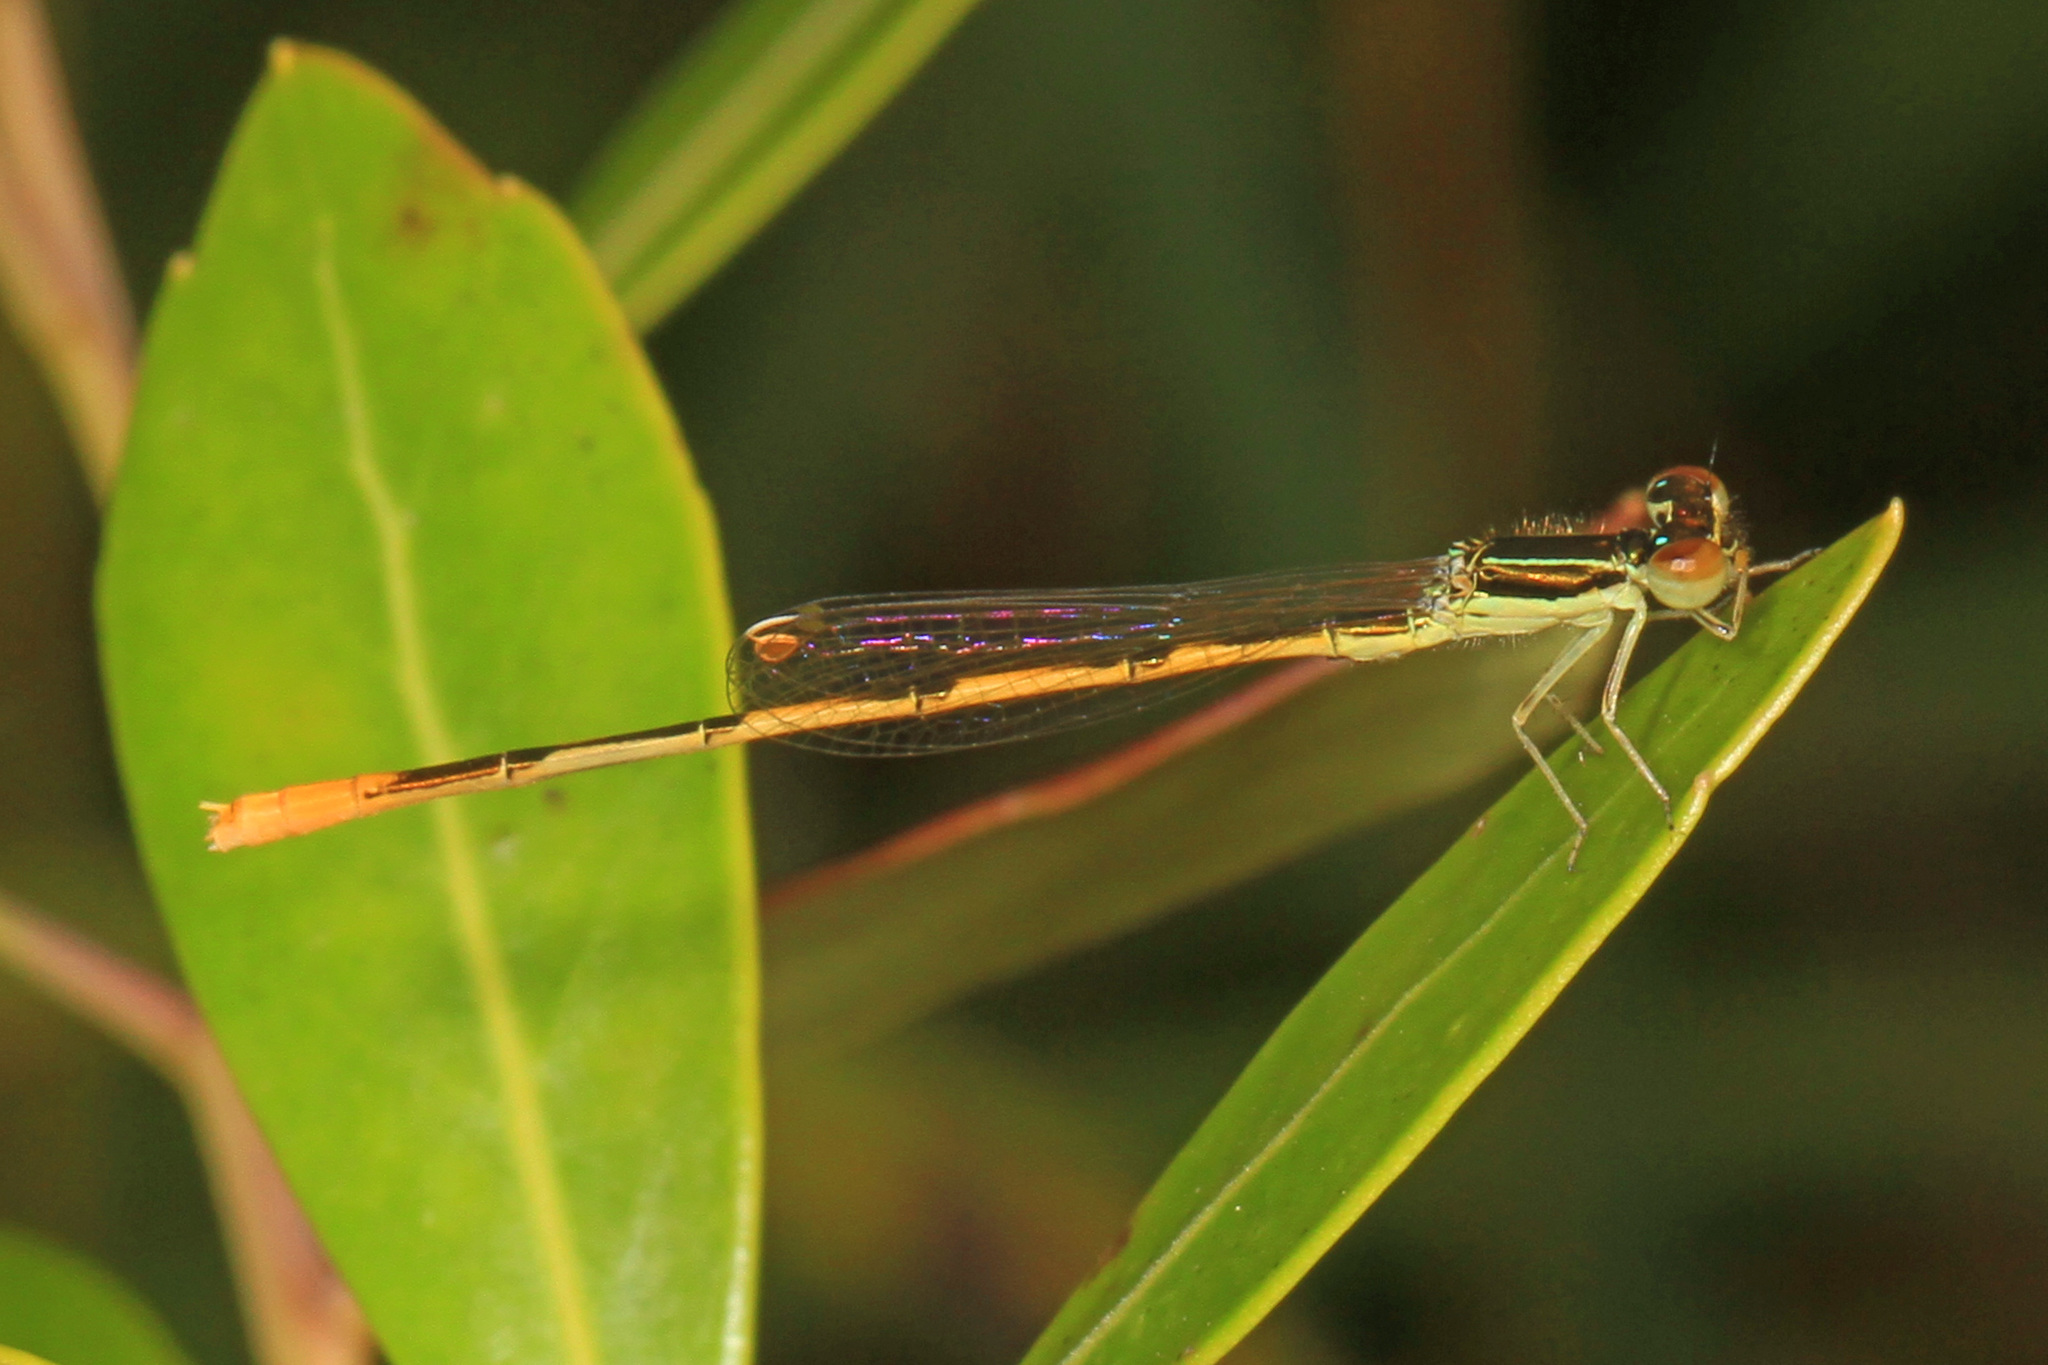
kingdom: Animalia
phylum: Arthropoda
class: Insecta
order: Odonata
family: Coenagrionidae
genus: Ischnura
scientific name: Ischnura hastata
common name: Citrine forktail
